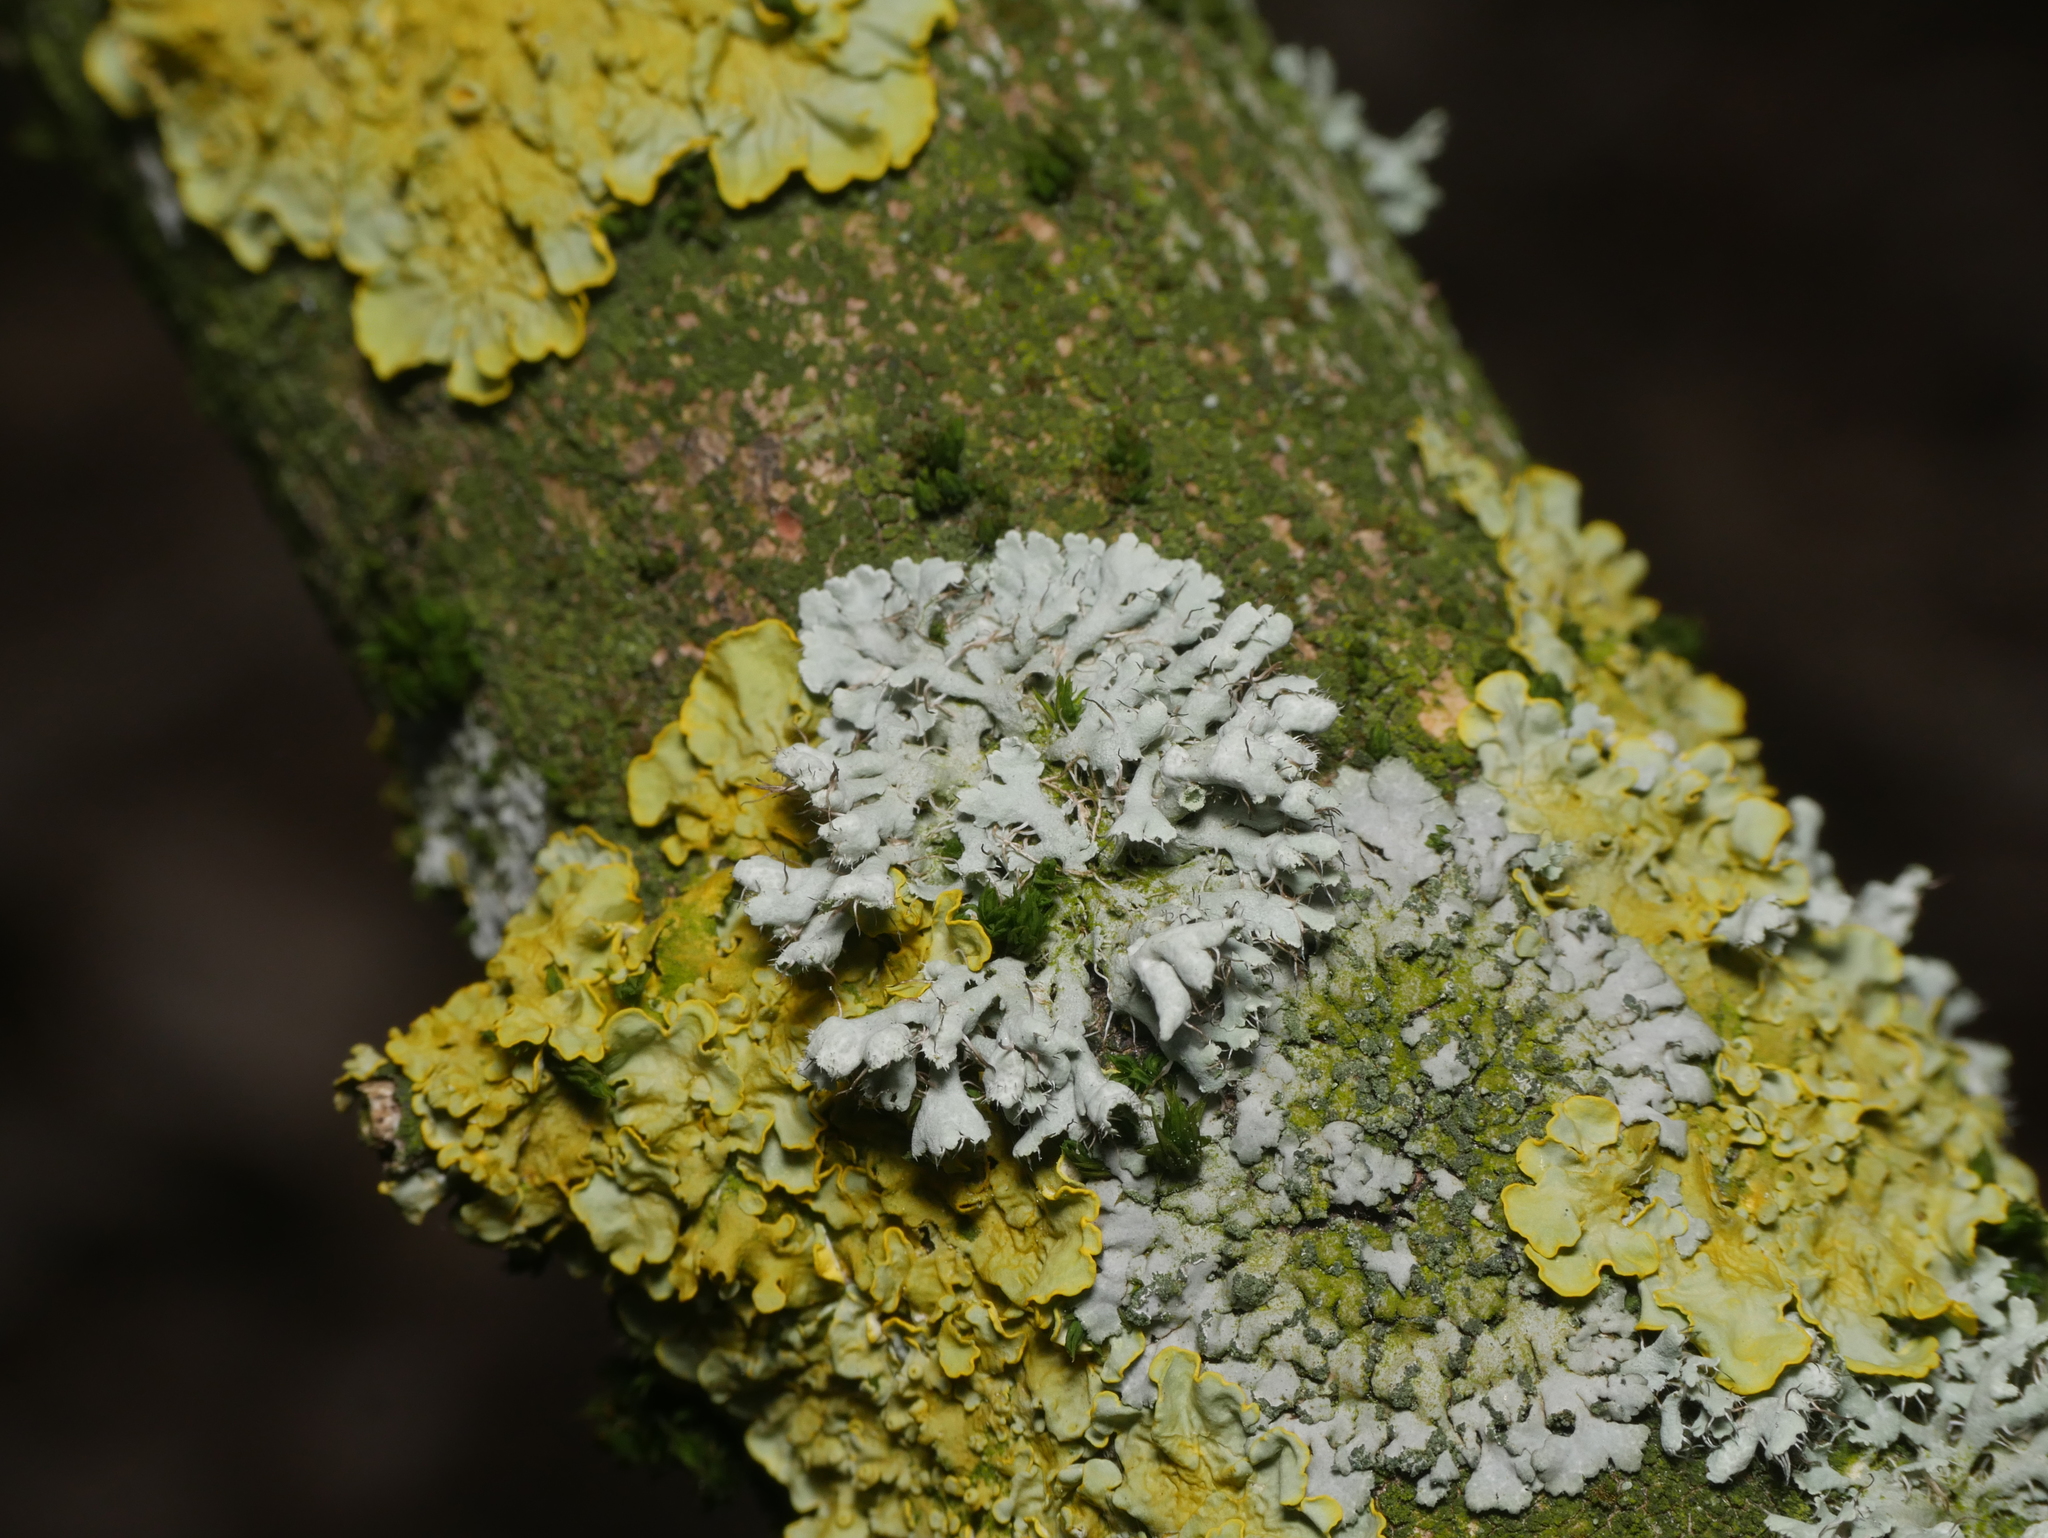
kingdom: Fungi
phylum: Ascomycota
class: Lecanoromycetes
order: Caliciales
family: Physciaceae
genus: Physcia
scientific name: Physcia adscendens
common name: Hooded rosette lichen
